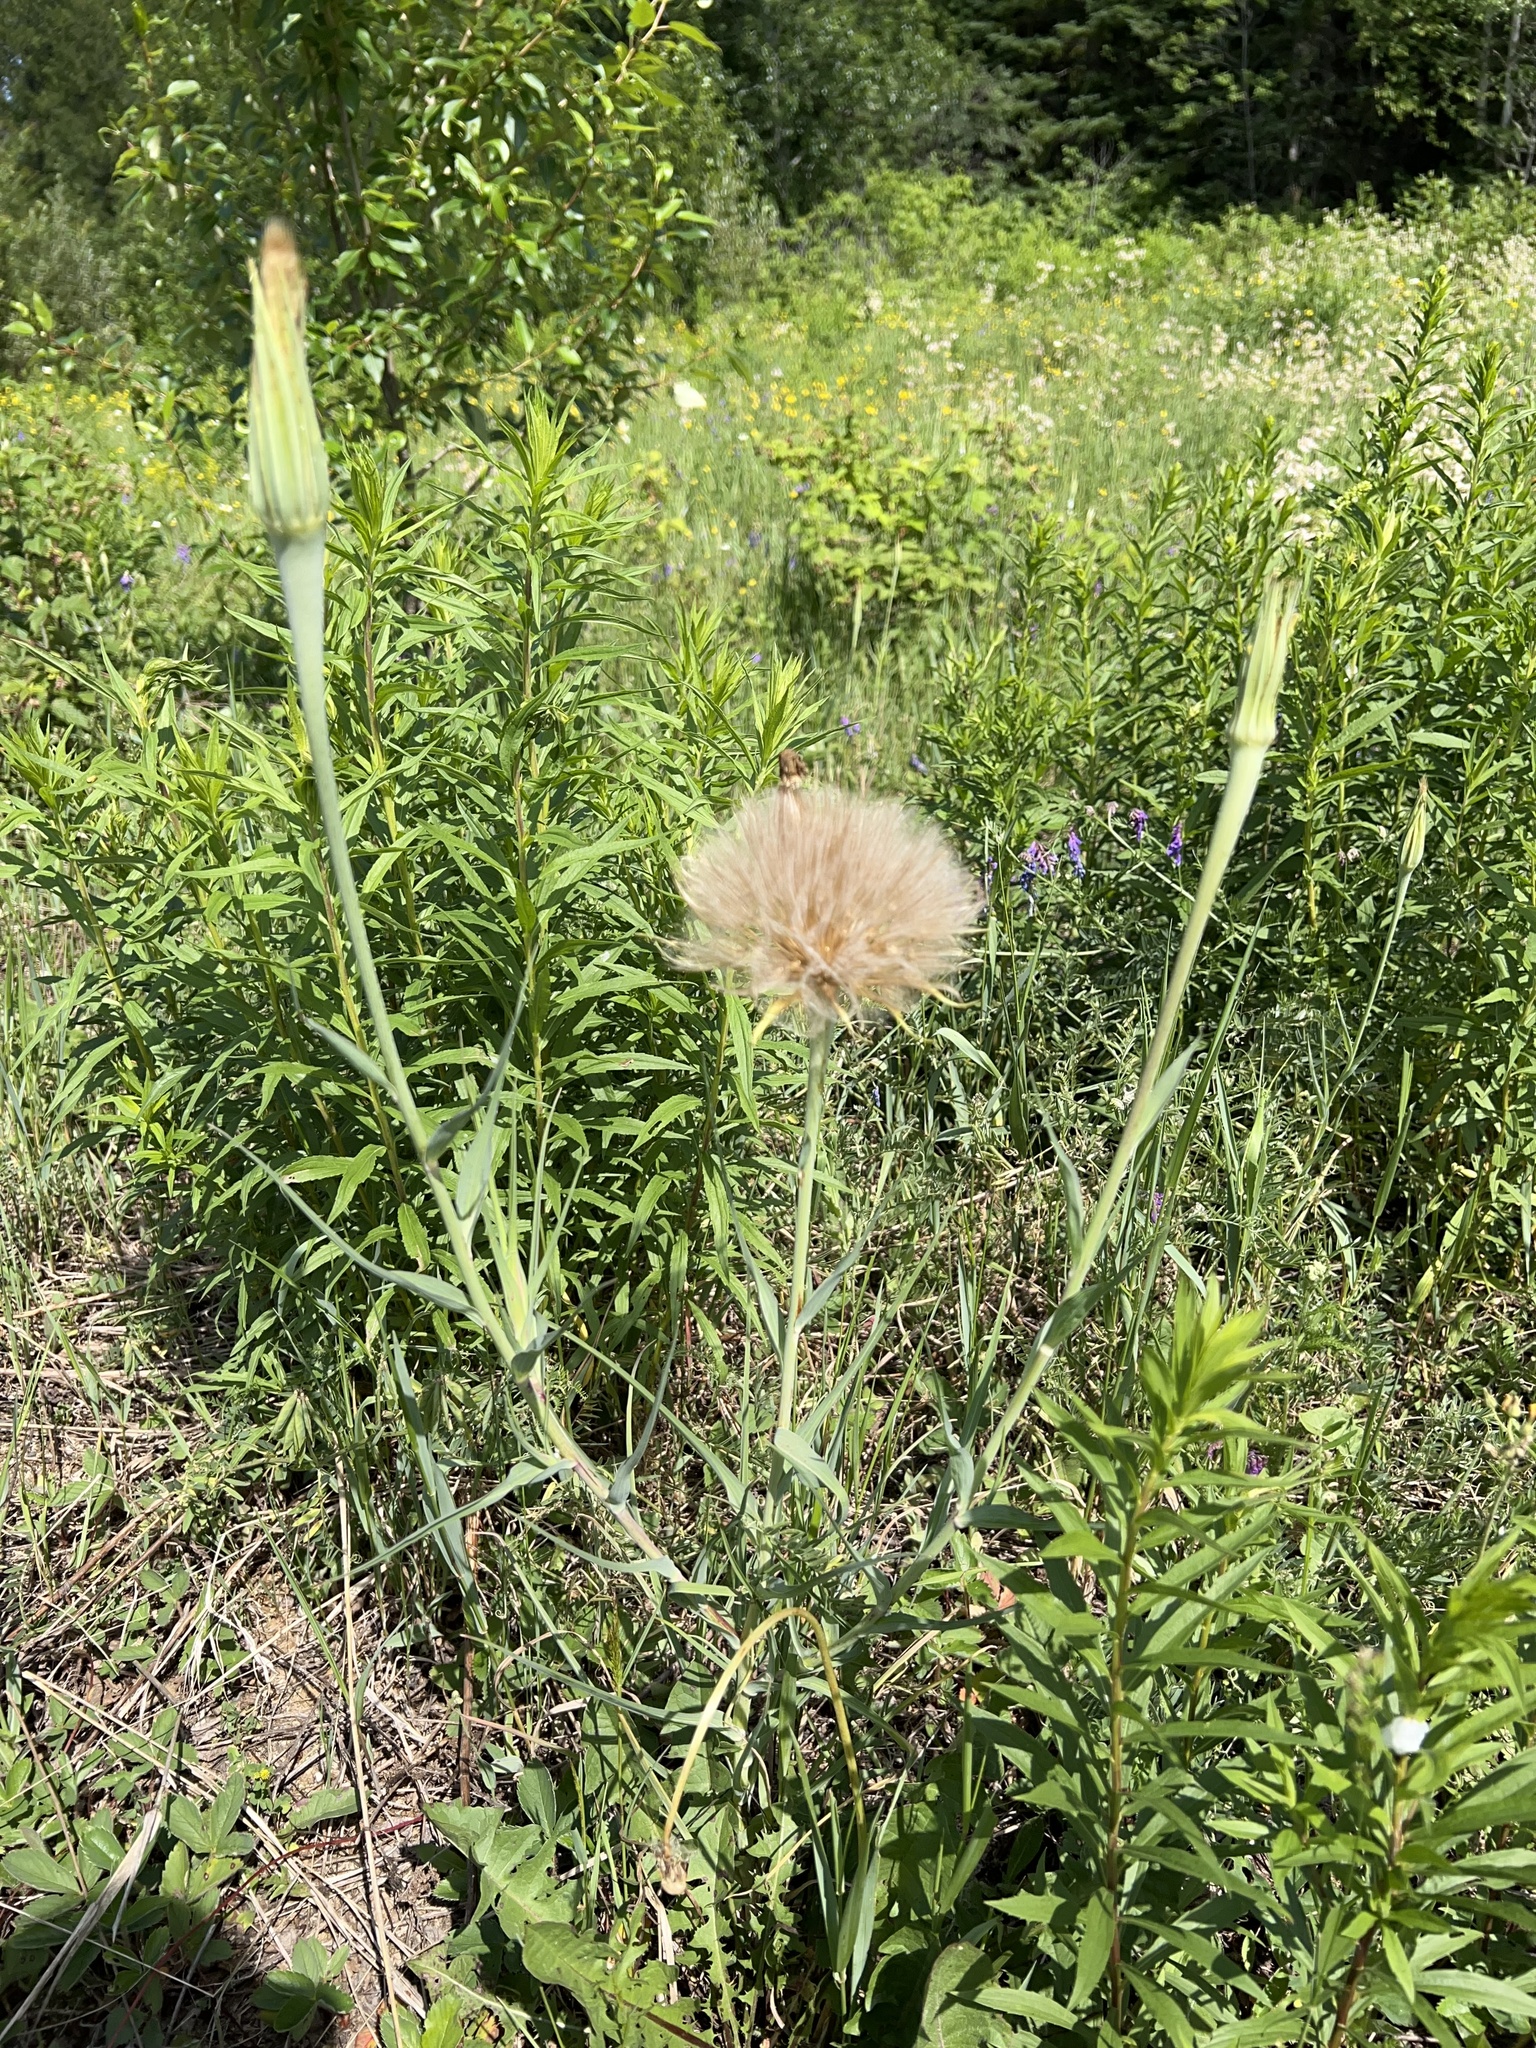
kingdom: Plantae
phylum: Tracheophyta
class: Magnoliopsida
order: Asterales
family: Asteraceae
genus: Tragopogon
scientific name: Tragopogon dubius
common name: Yellow salsify
